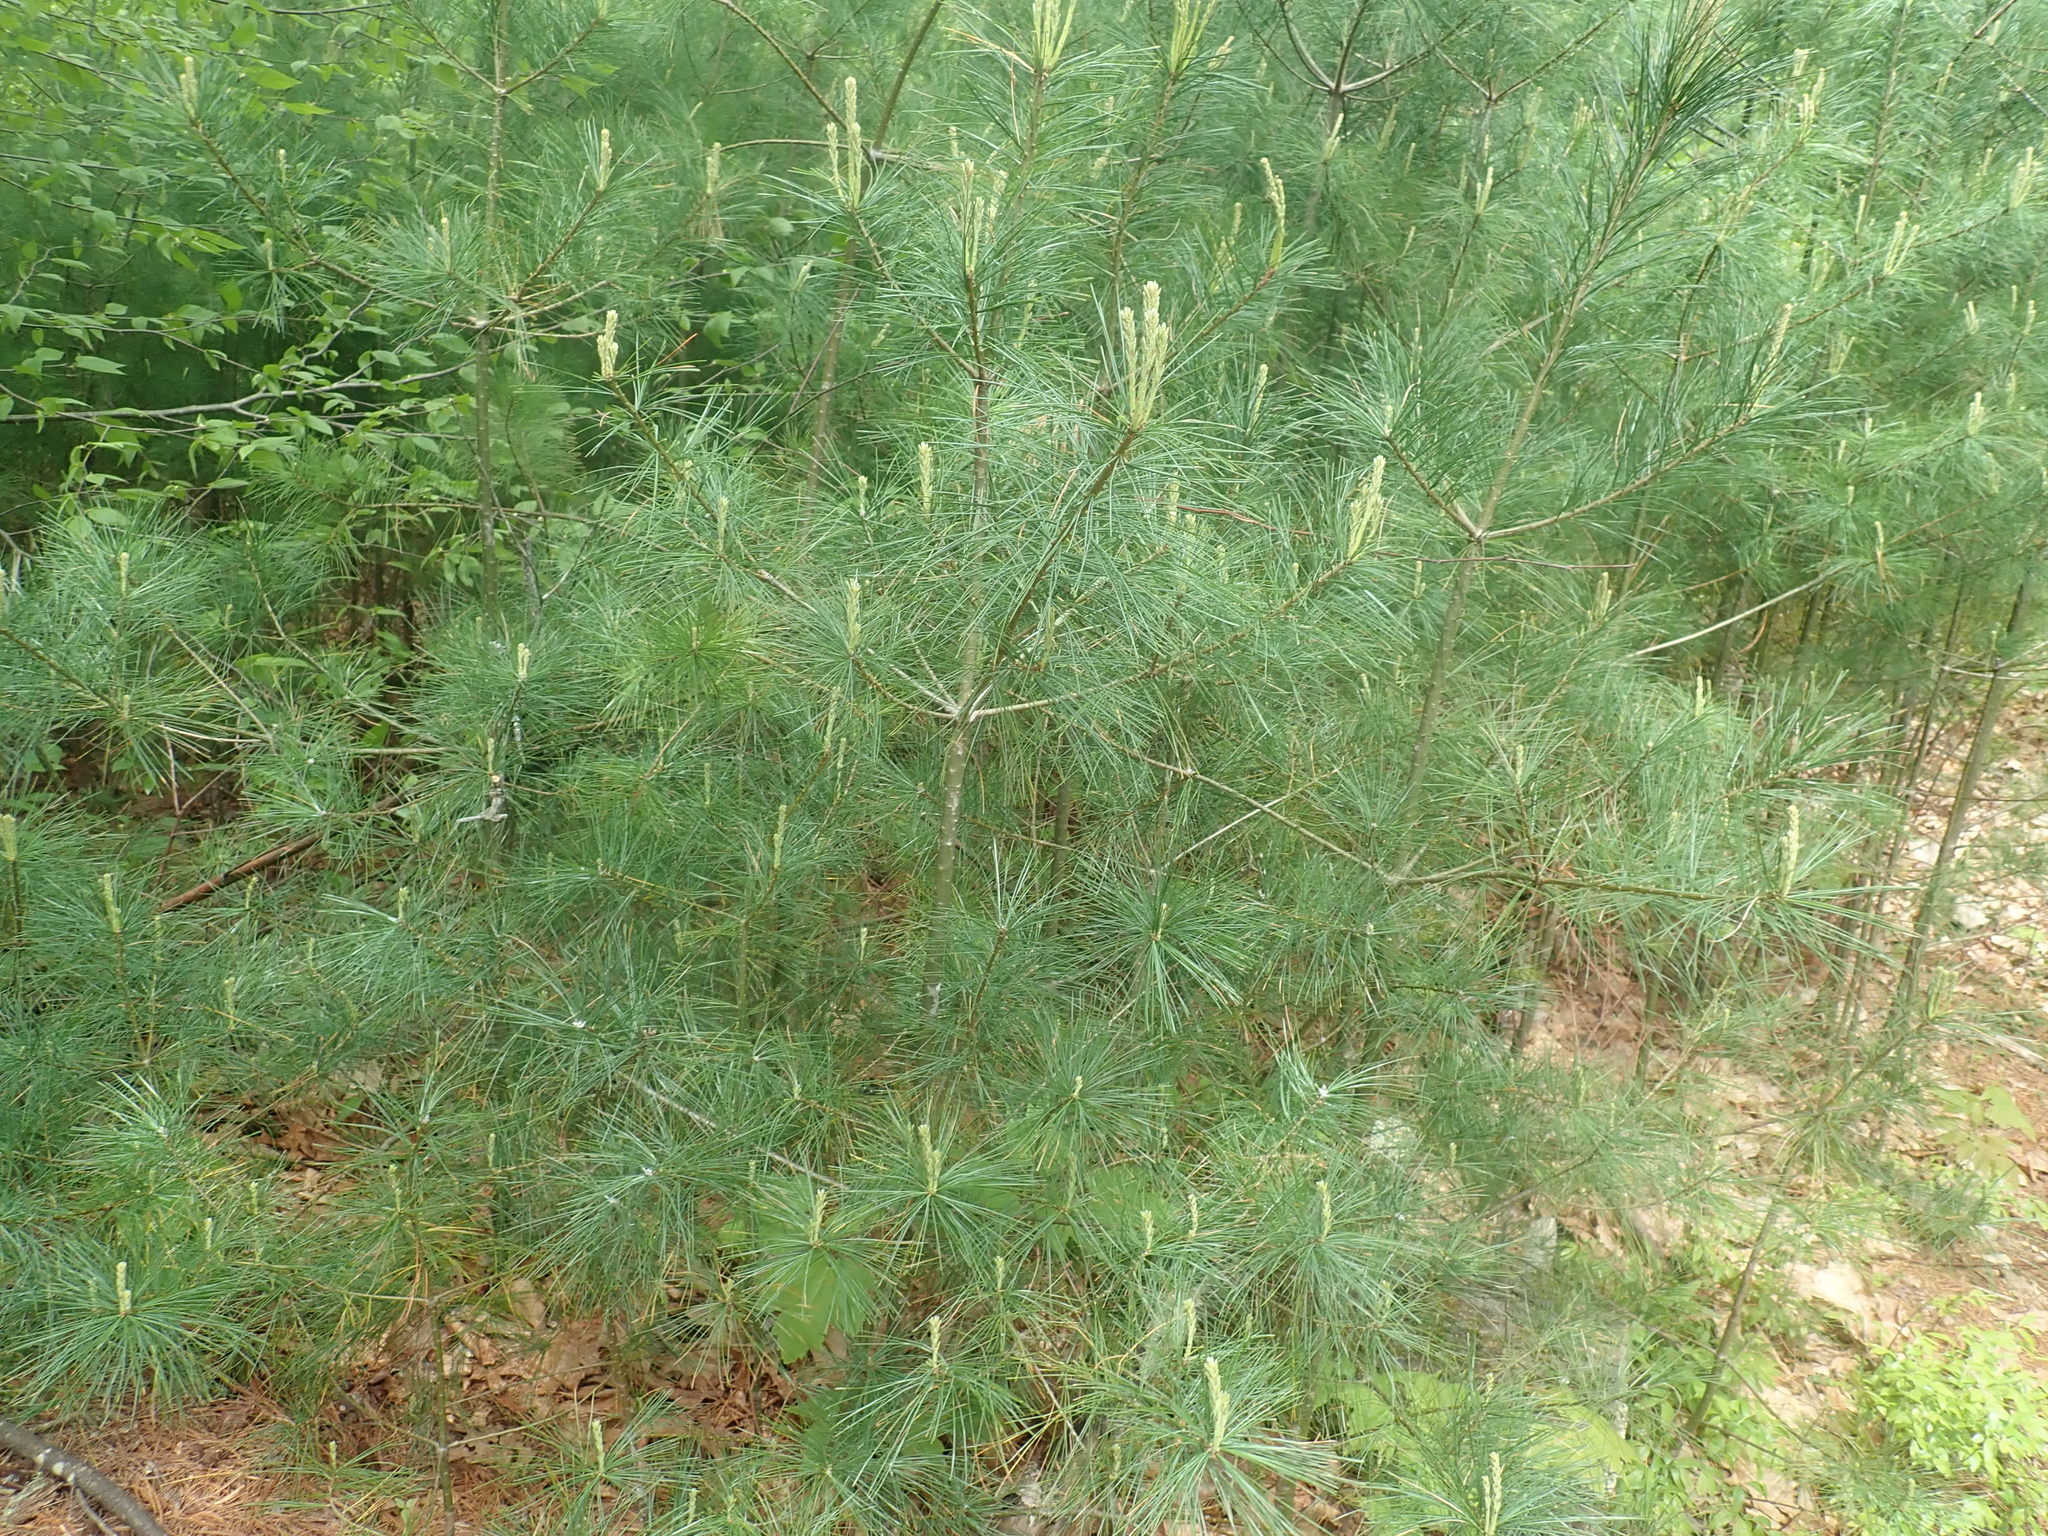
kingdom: Plantae
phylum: Tracheophyta
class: Pinopsida
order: Pinales
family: Pinaceae
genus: Pinus
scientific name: Pinus strobus
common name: Weymouth pine
